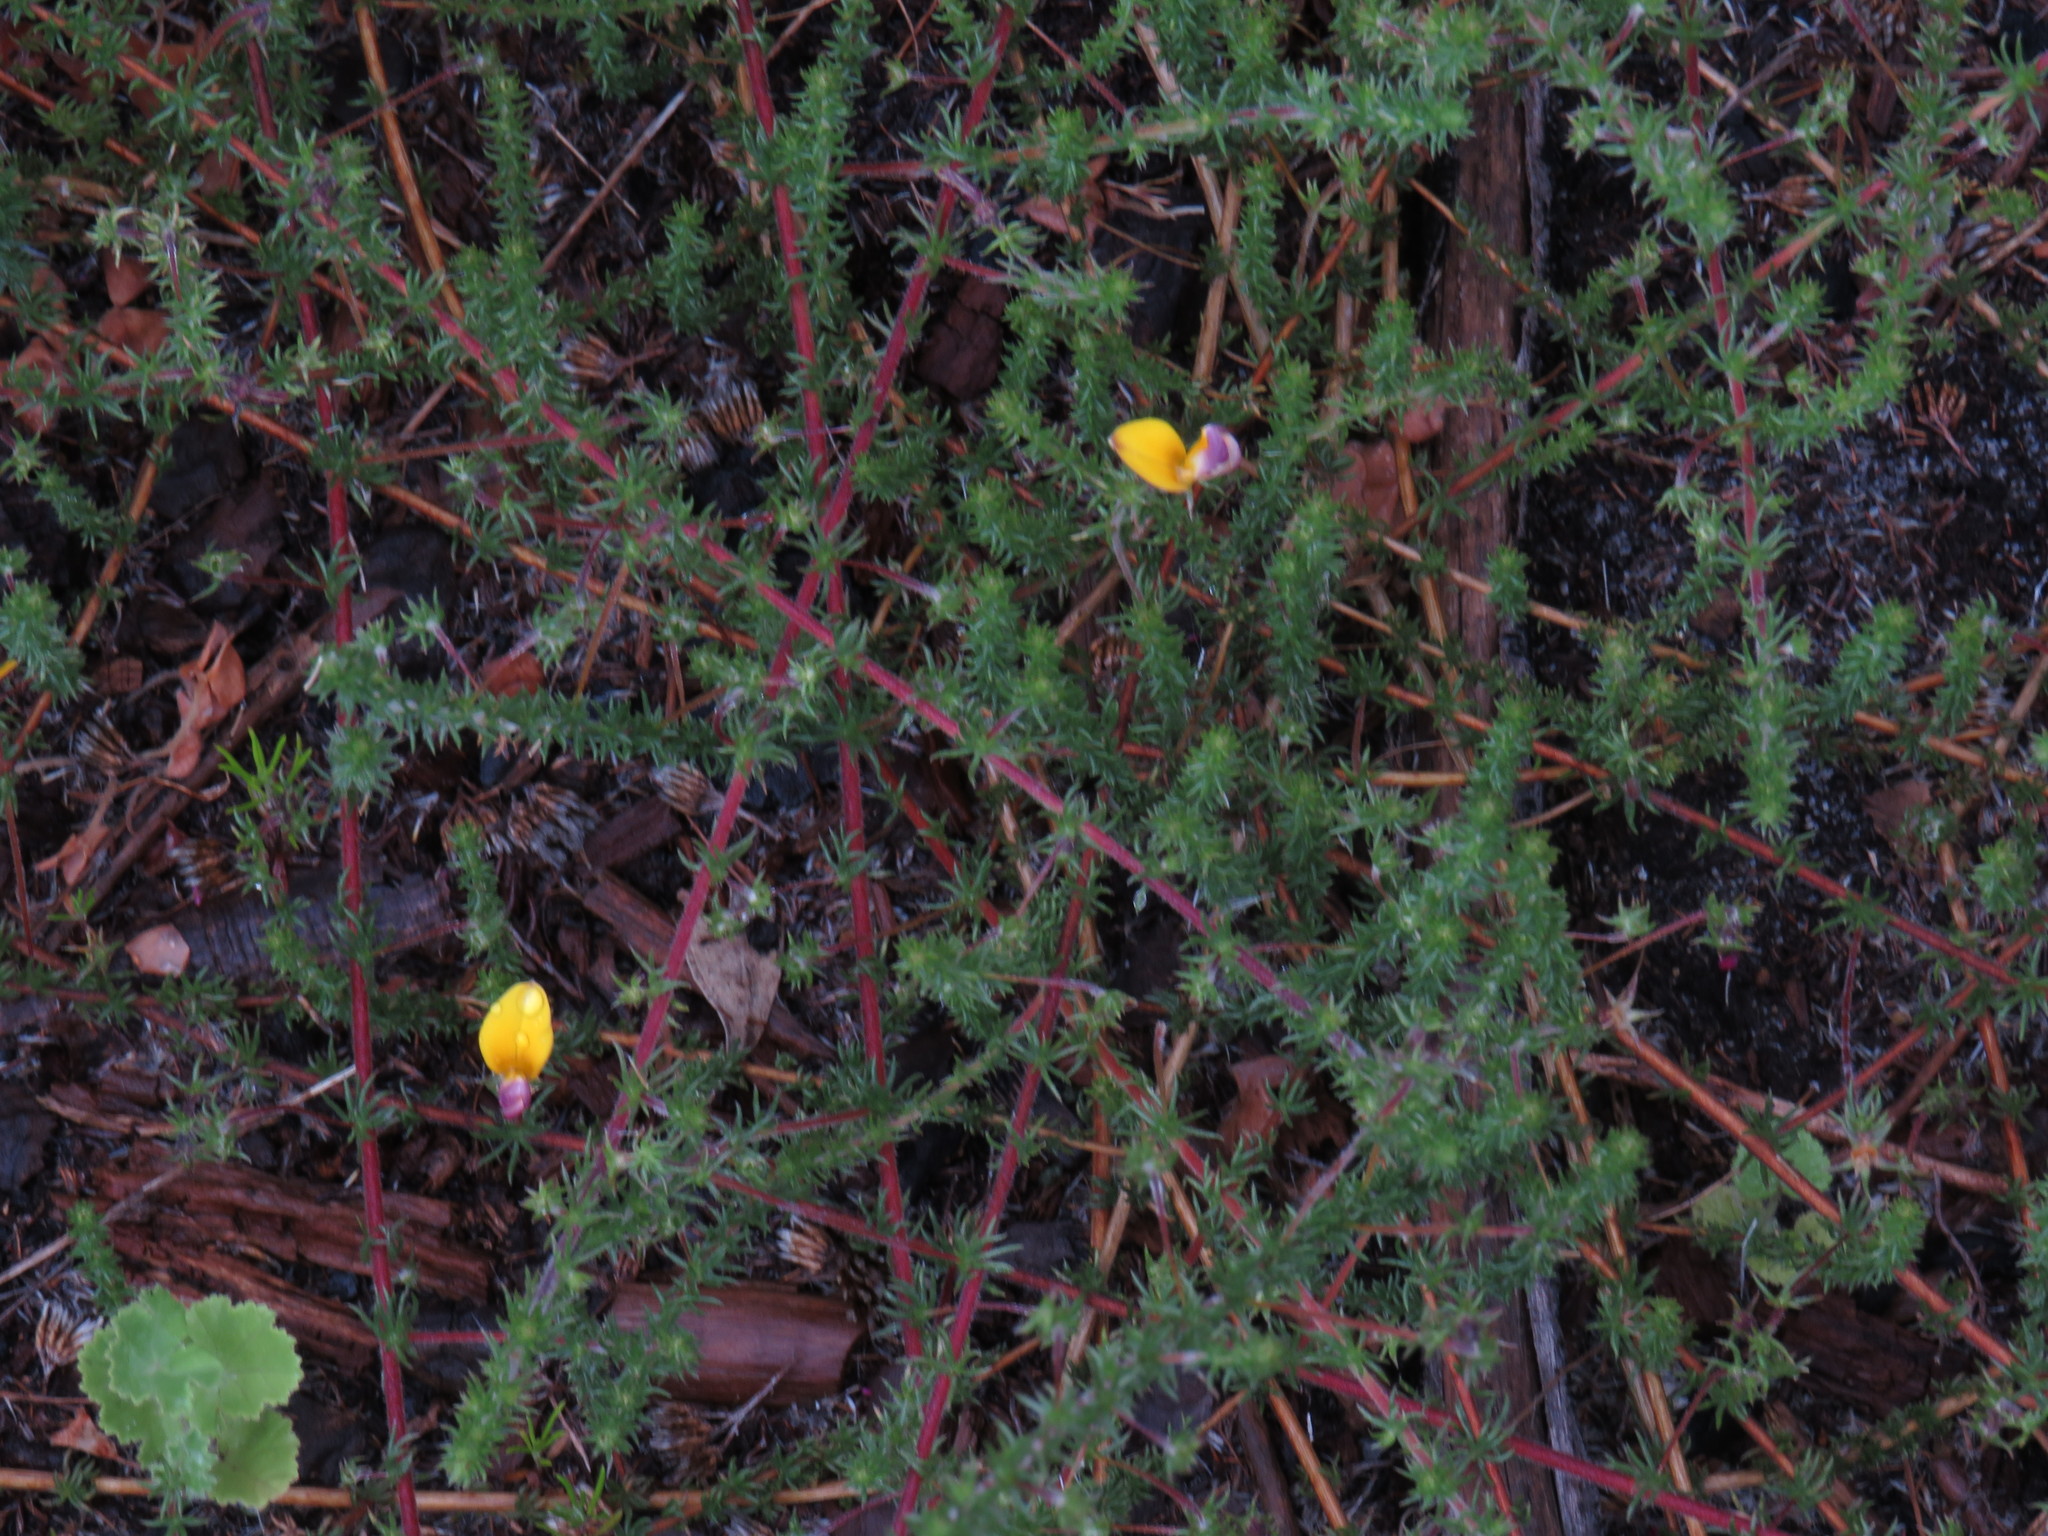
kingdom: Plantae
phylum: Tracheophyta
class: Magnoliopsida
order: Fabales
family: Fabaceae
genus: Aspalathus
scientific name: Aspalathus retroflexa
